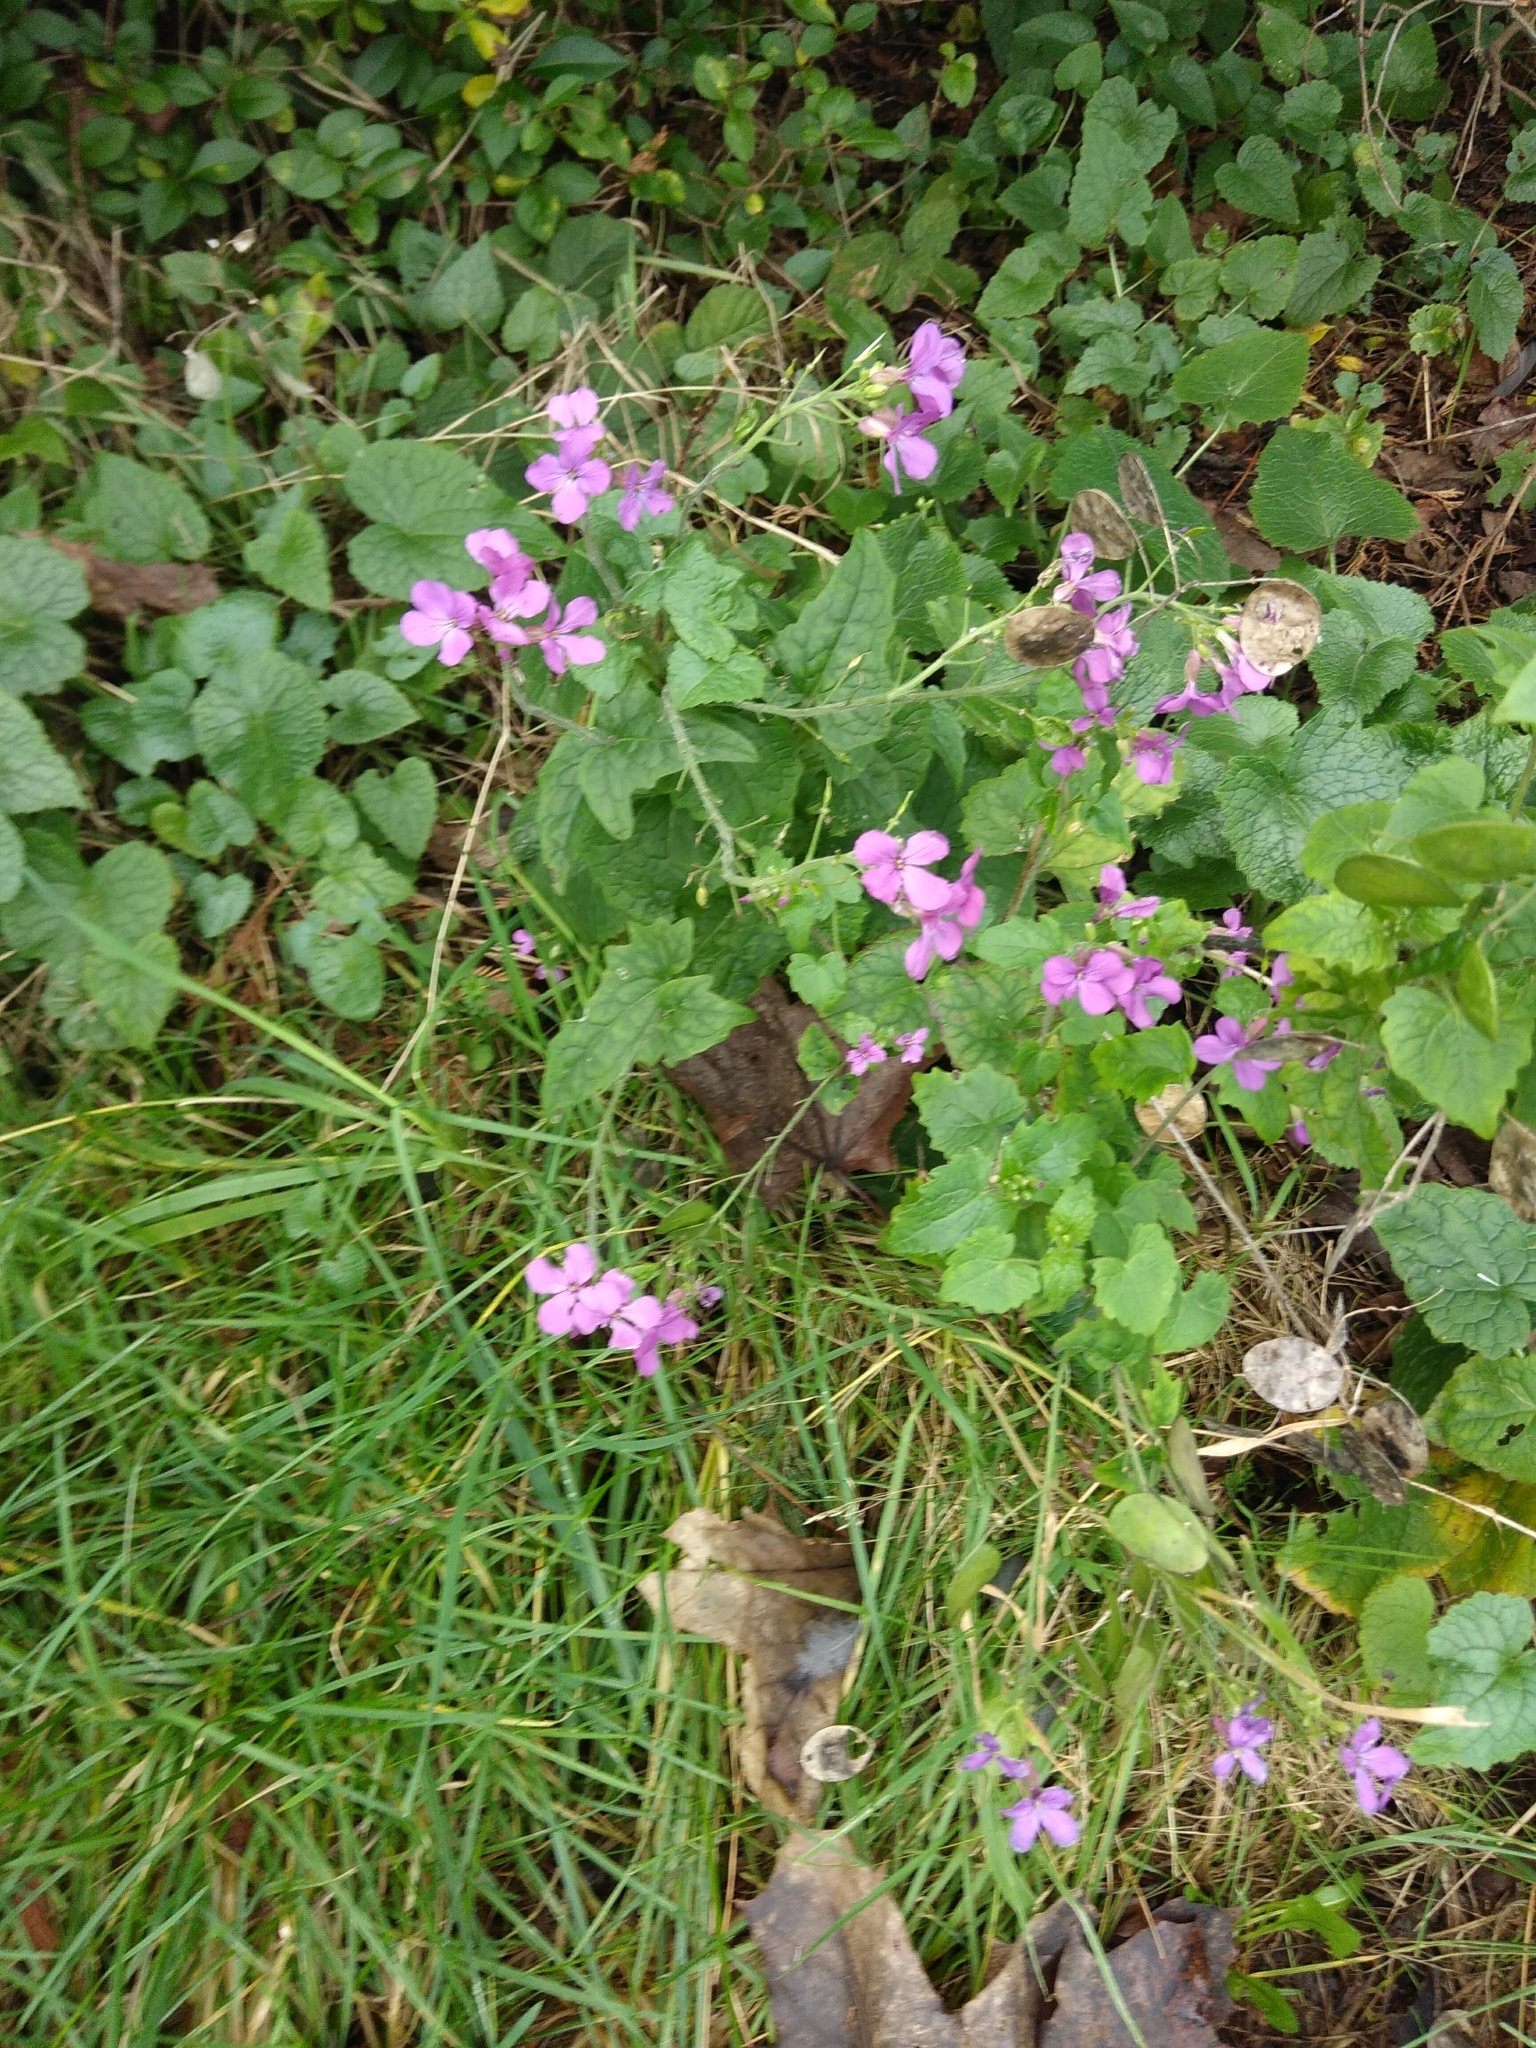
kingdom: Plantae
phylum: Tracheophyta
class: Magnoliopsida
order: Brassicales
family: Brassicaceae
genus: Lunaria
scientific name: Lunaria annua
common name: Honesty
